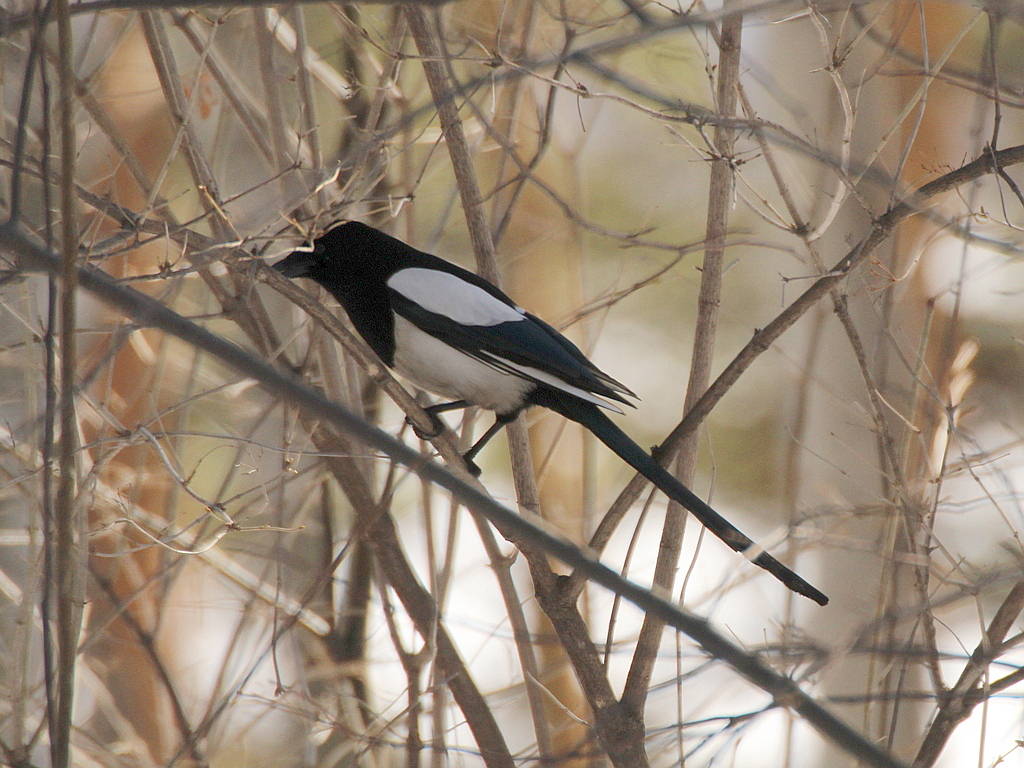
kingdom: Animalia
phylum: Chordata
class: Aves
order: Passeriformes
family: Corvidae
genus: Pica
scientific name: Pica pica
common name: Eurasian magpie
